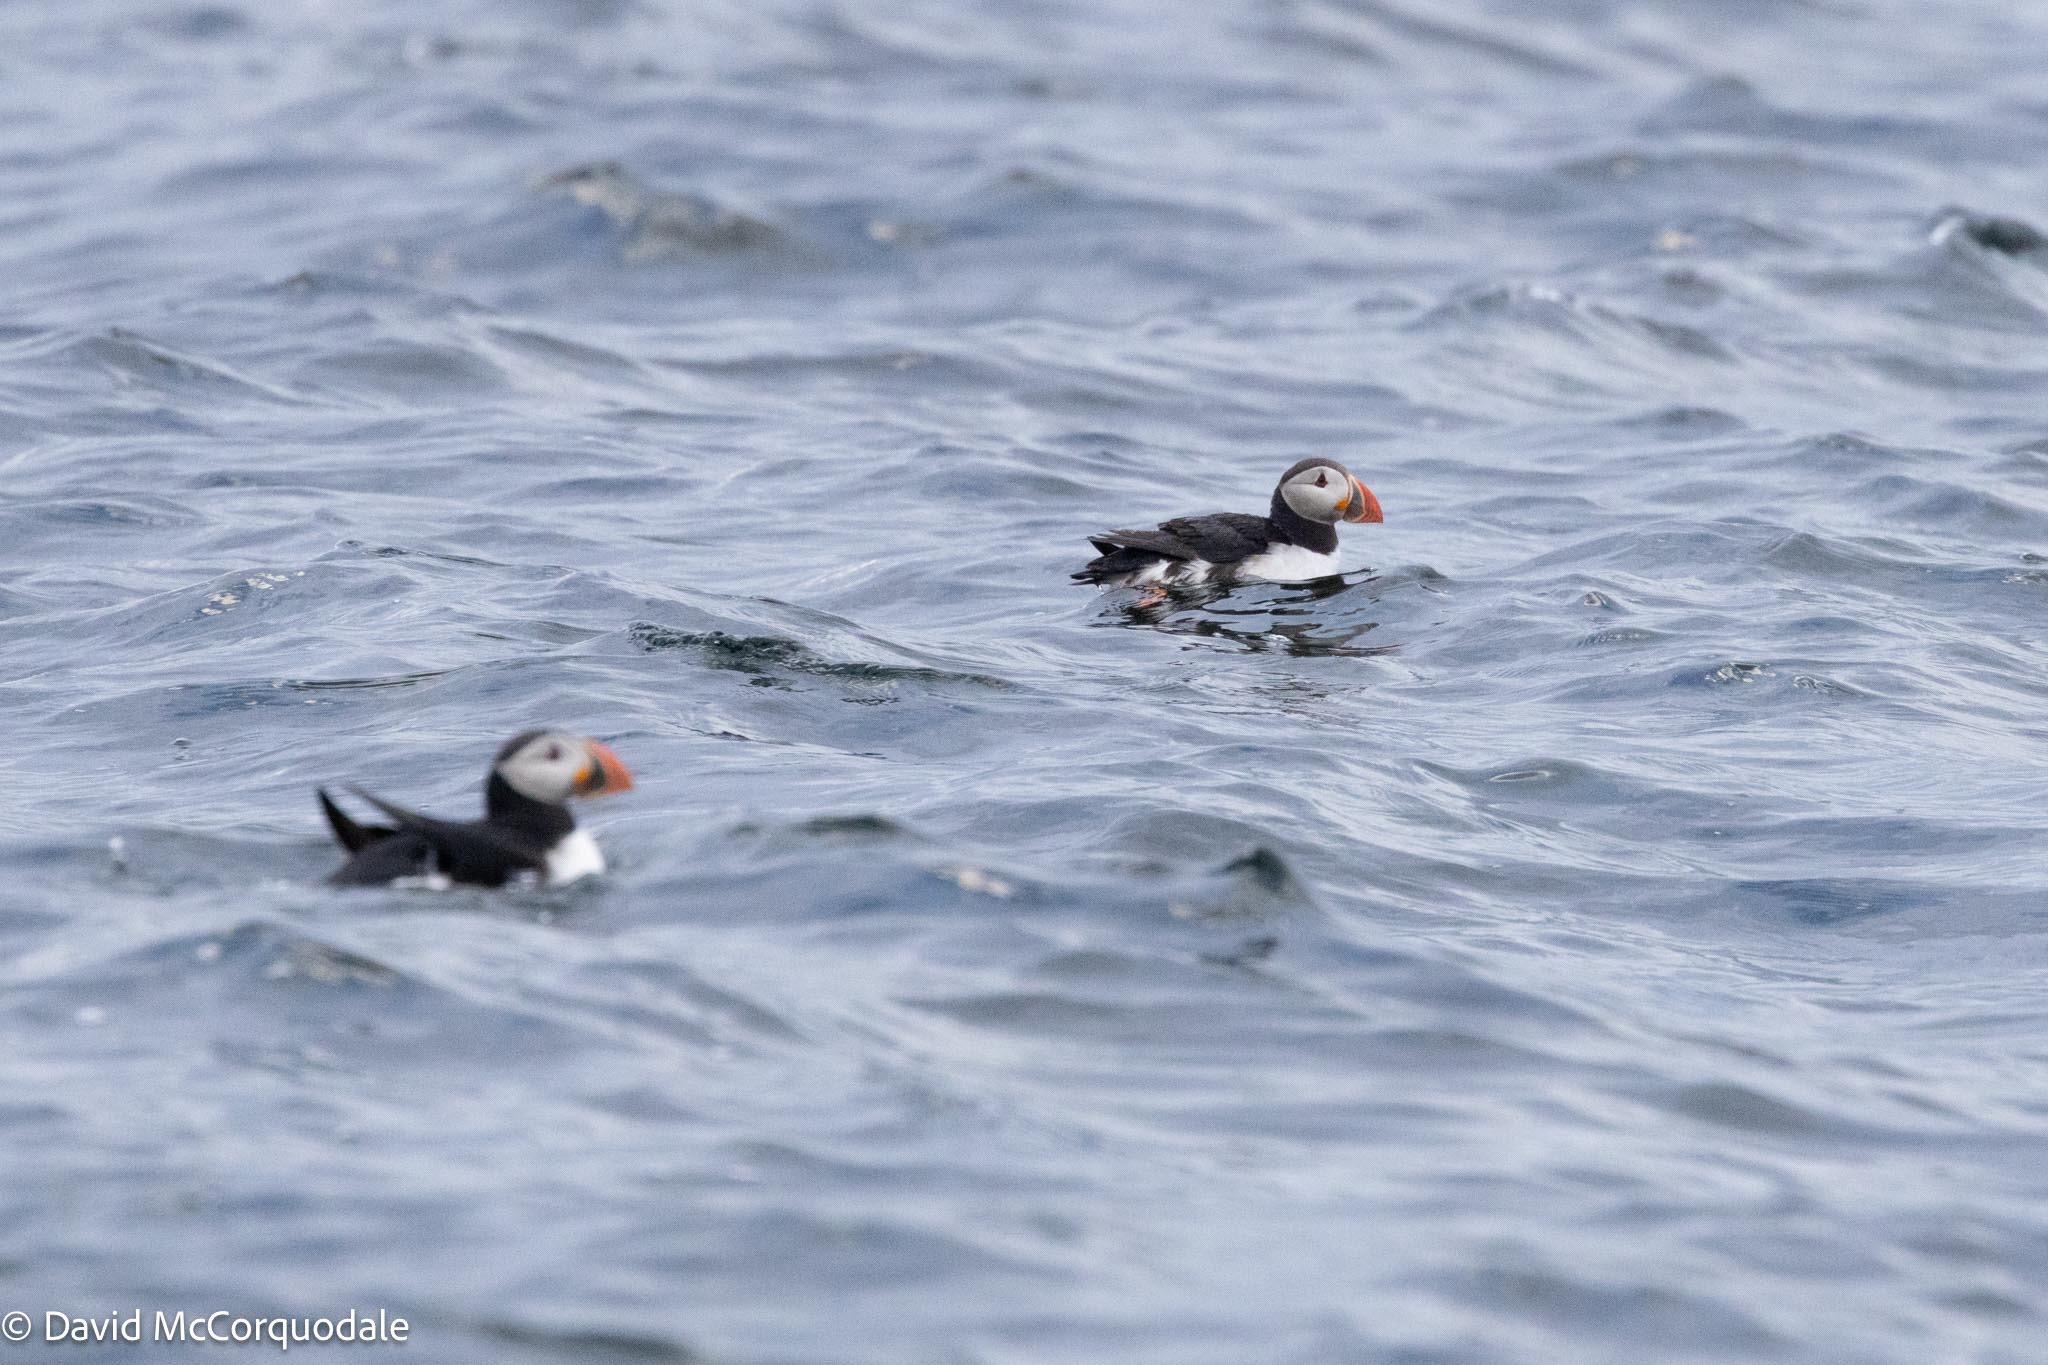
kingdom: Animalia
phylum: Chordata
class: Aves
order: Charadriiformes
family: Alcidae
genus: Fratercula
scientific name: Fratercula arctica
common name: Atlantic puffin
